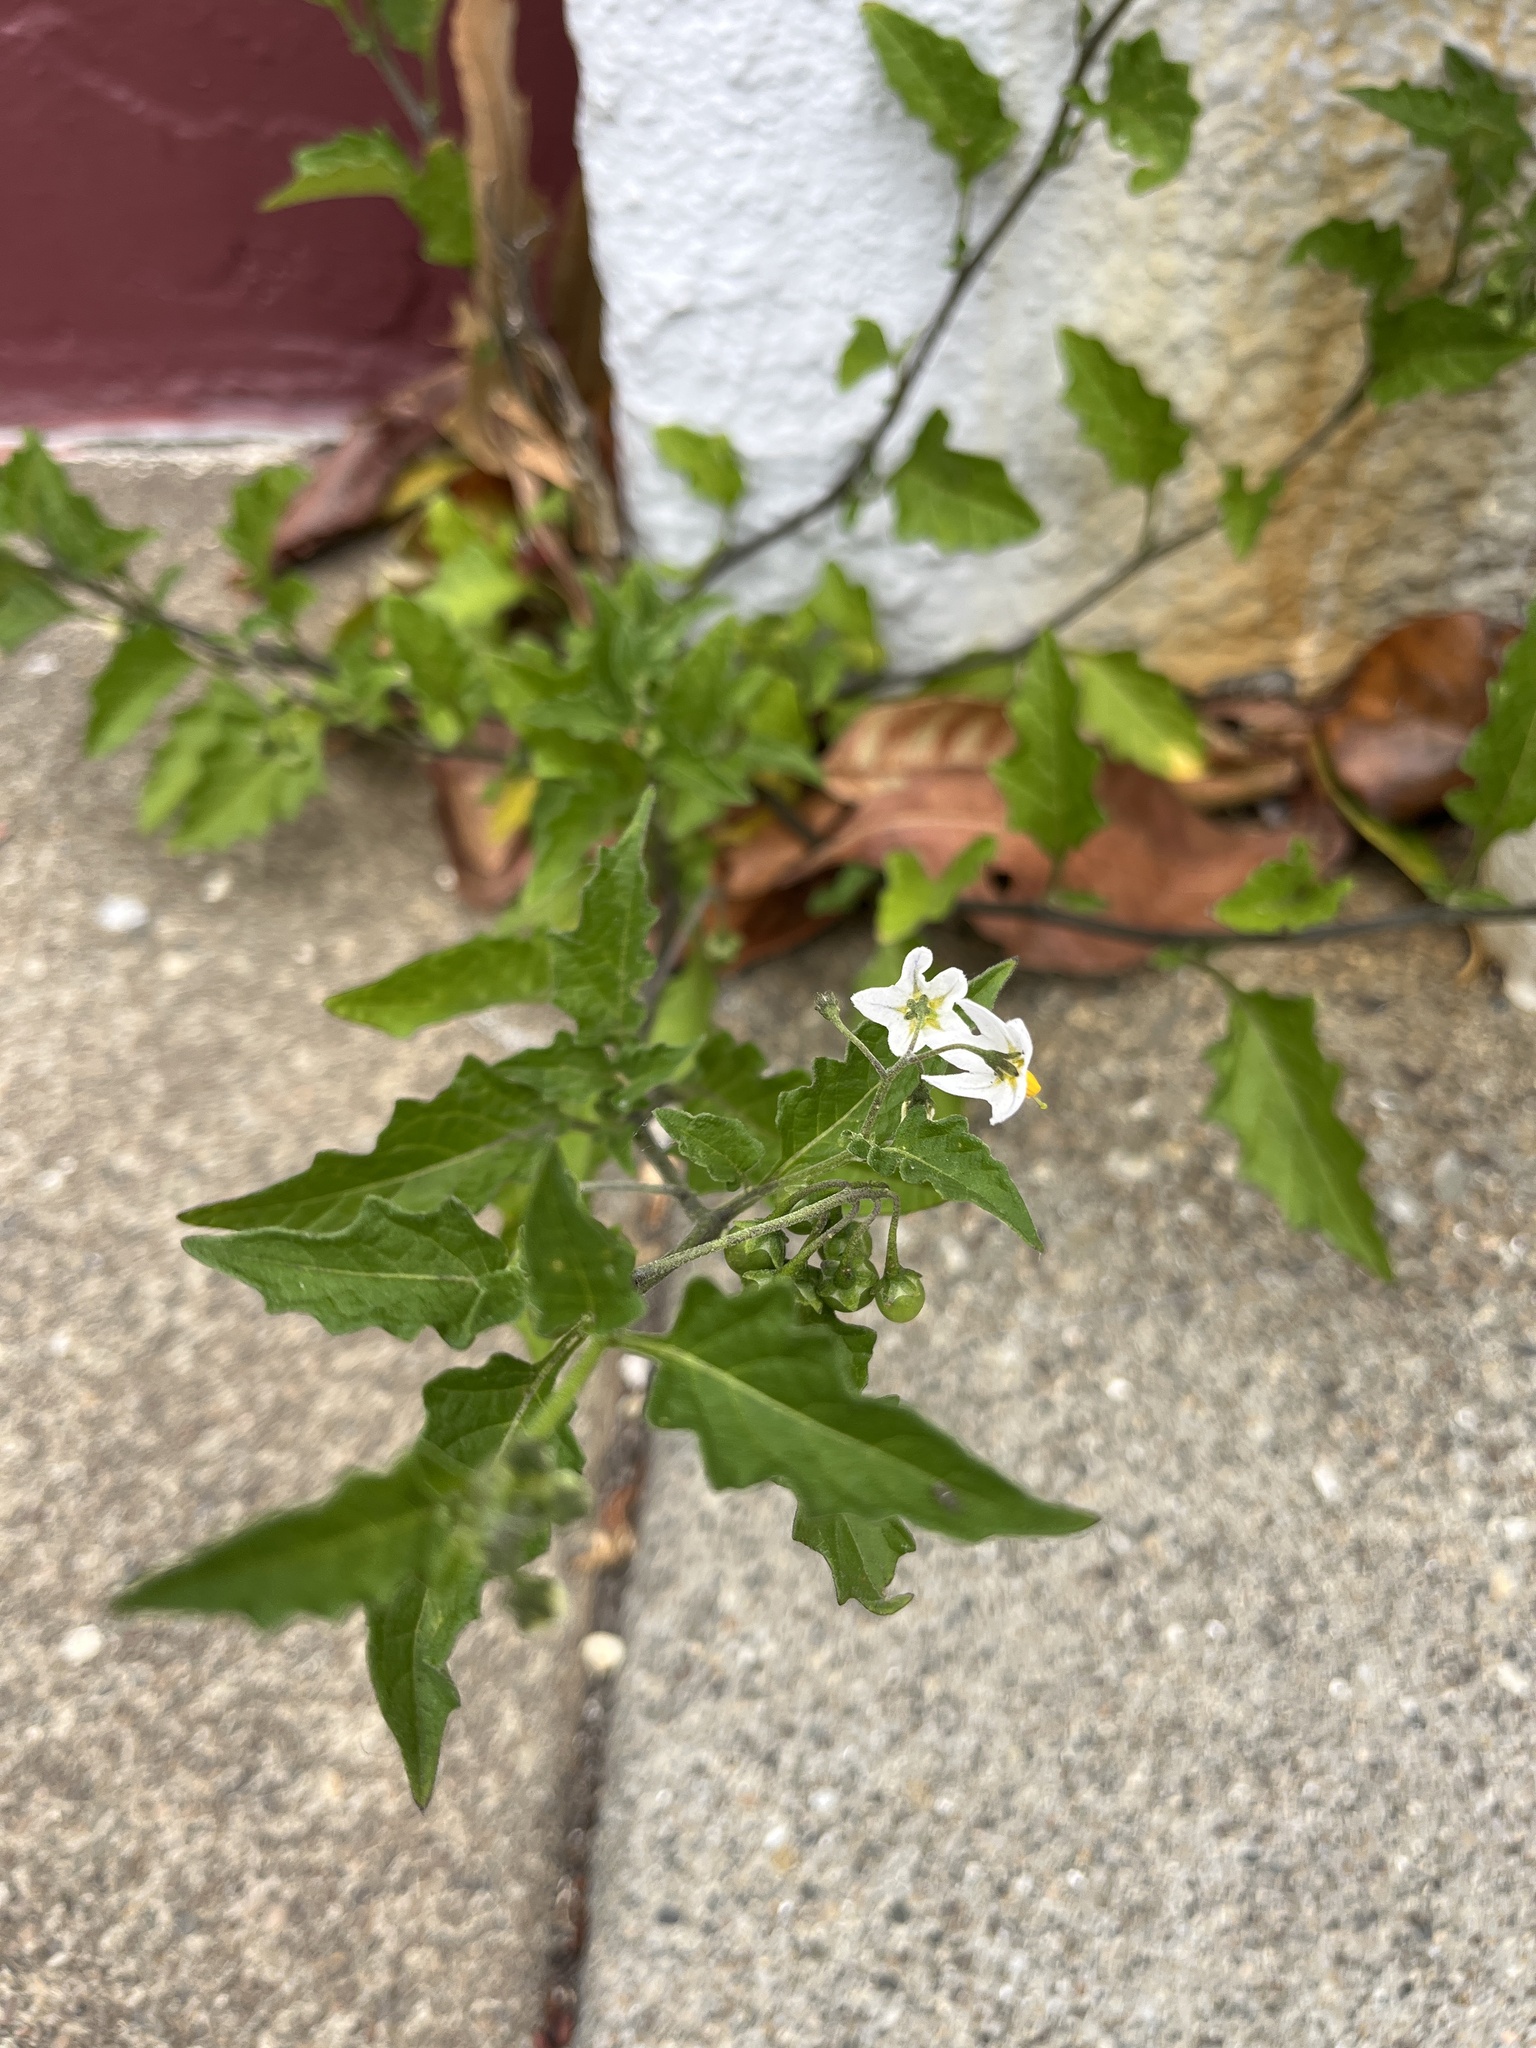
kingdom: Plantae
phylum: Tracheophyta
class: Magnoliopsida
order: Solanales
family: Solanaceae
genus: Solanum
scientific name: Solanum furcatum
